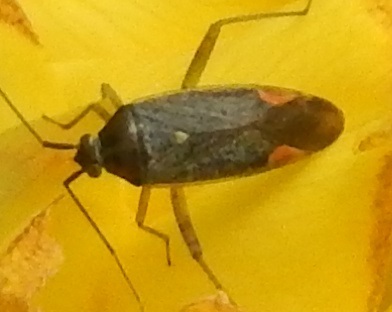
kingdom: Animalia
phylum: Arthropoda
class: Insecta
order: Hemiptera
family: Miridae
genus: Closterotomus
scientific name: Closterotomus trivialis
